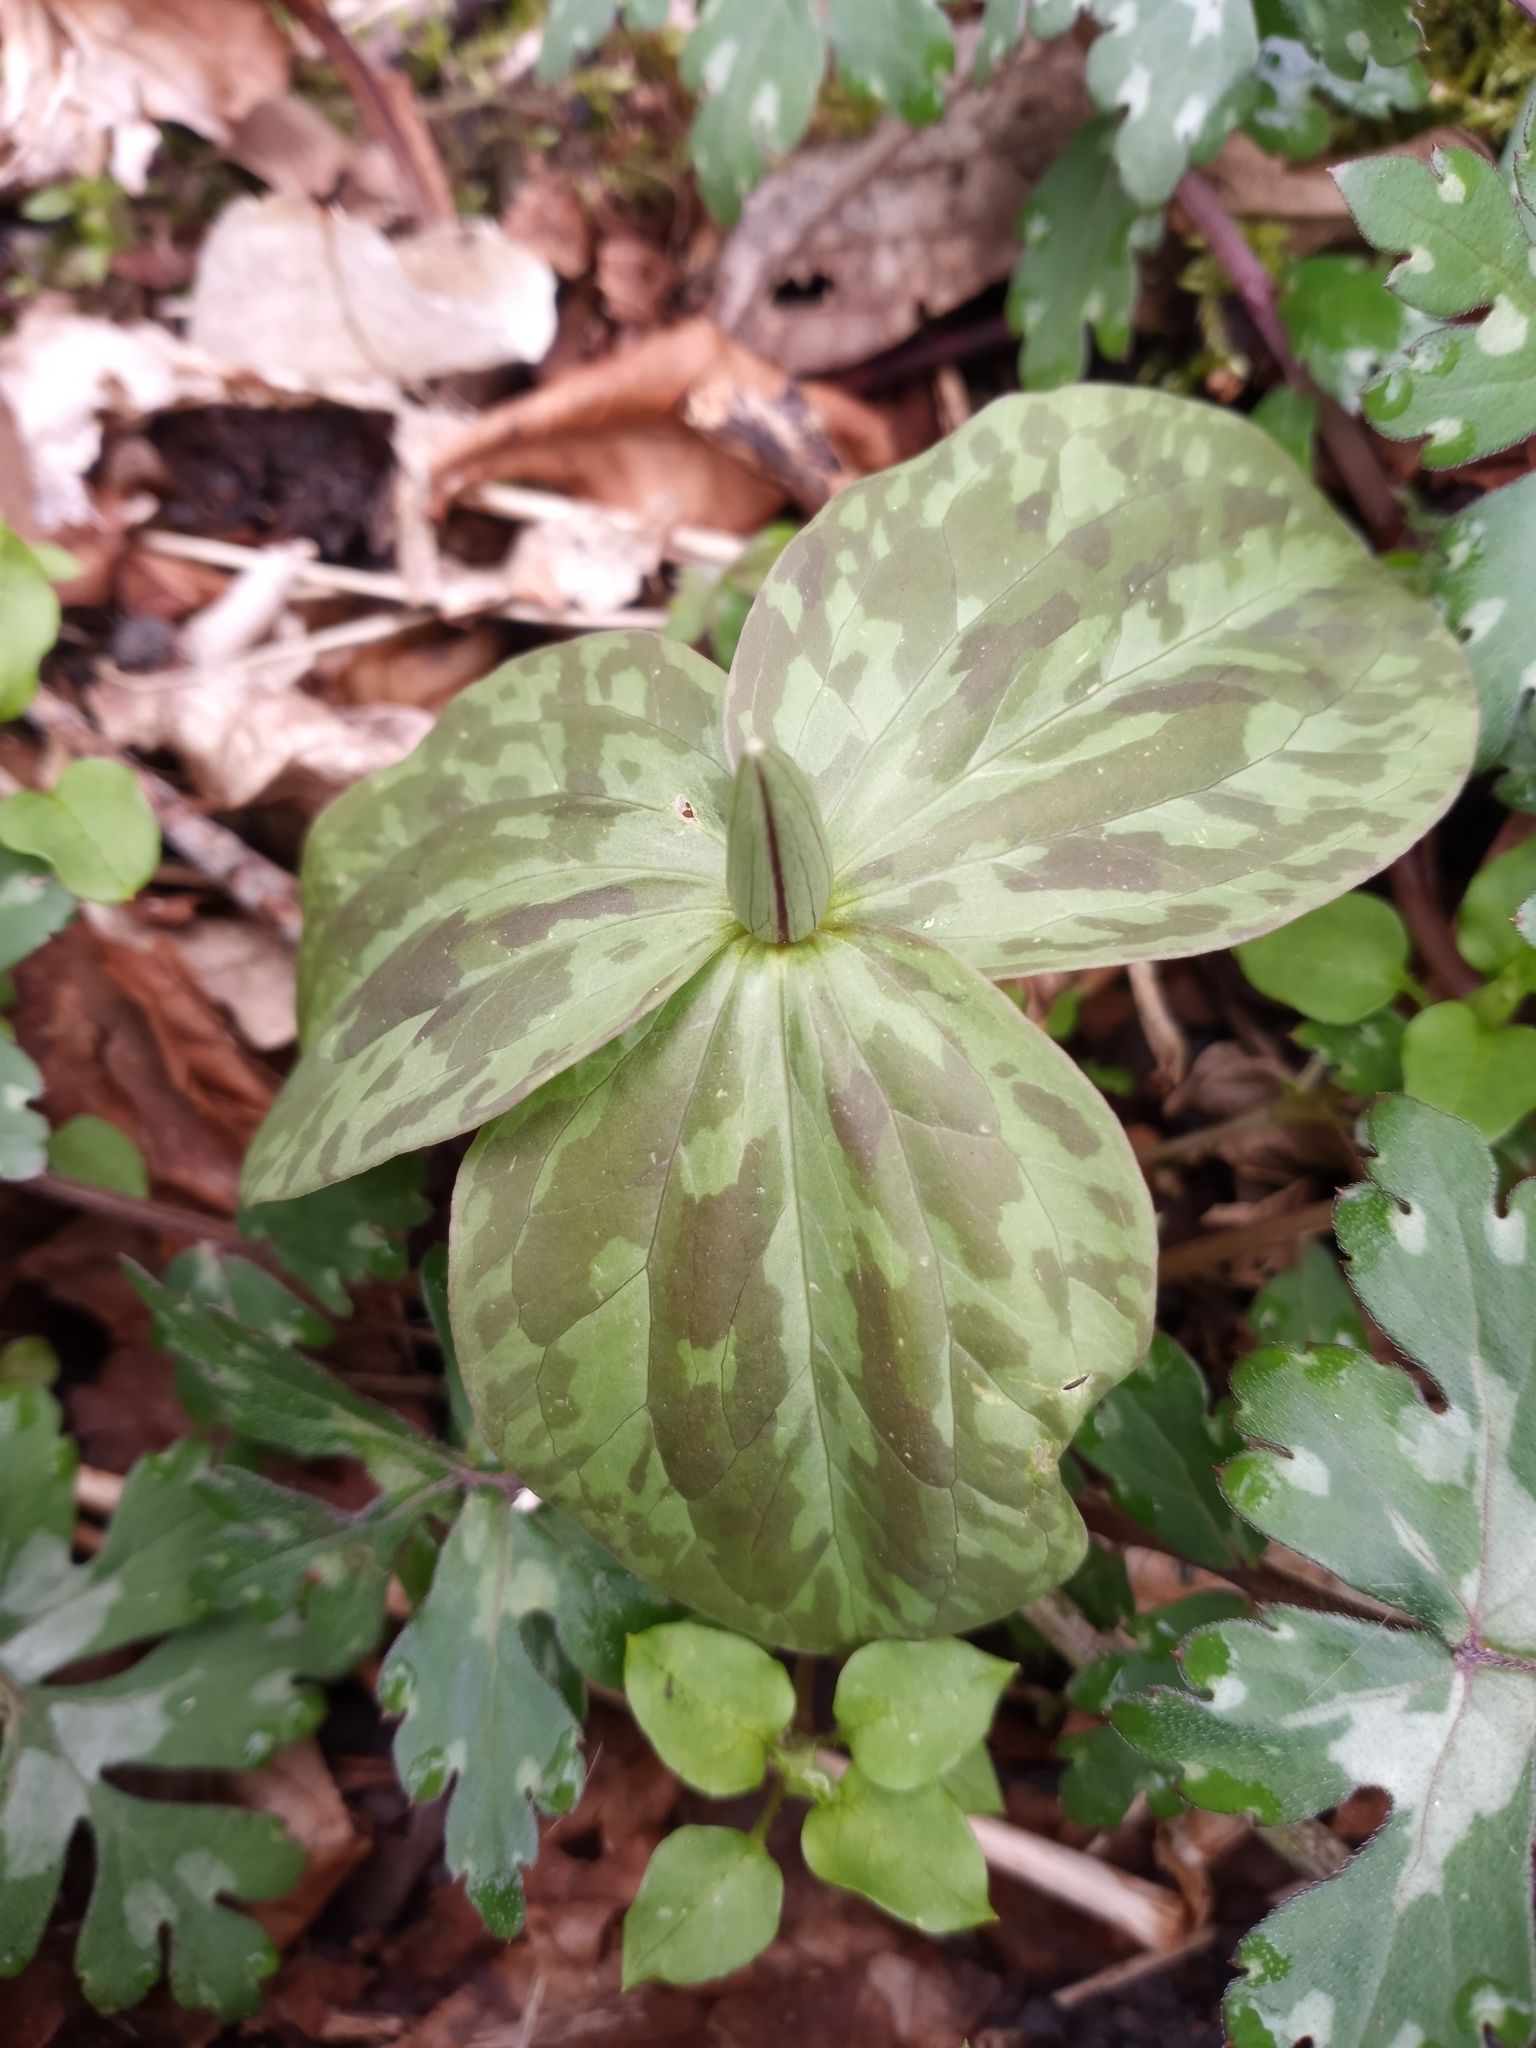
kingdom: Plantae
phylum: Tracheophyta
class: Liliopsida
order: Liliales
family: Melanthiaceae
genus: Trillium
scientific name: Trillium sessile
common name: Sessile trillium
